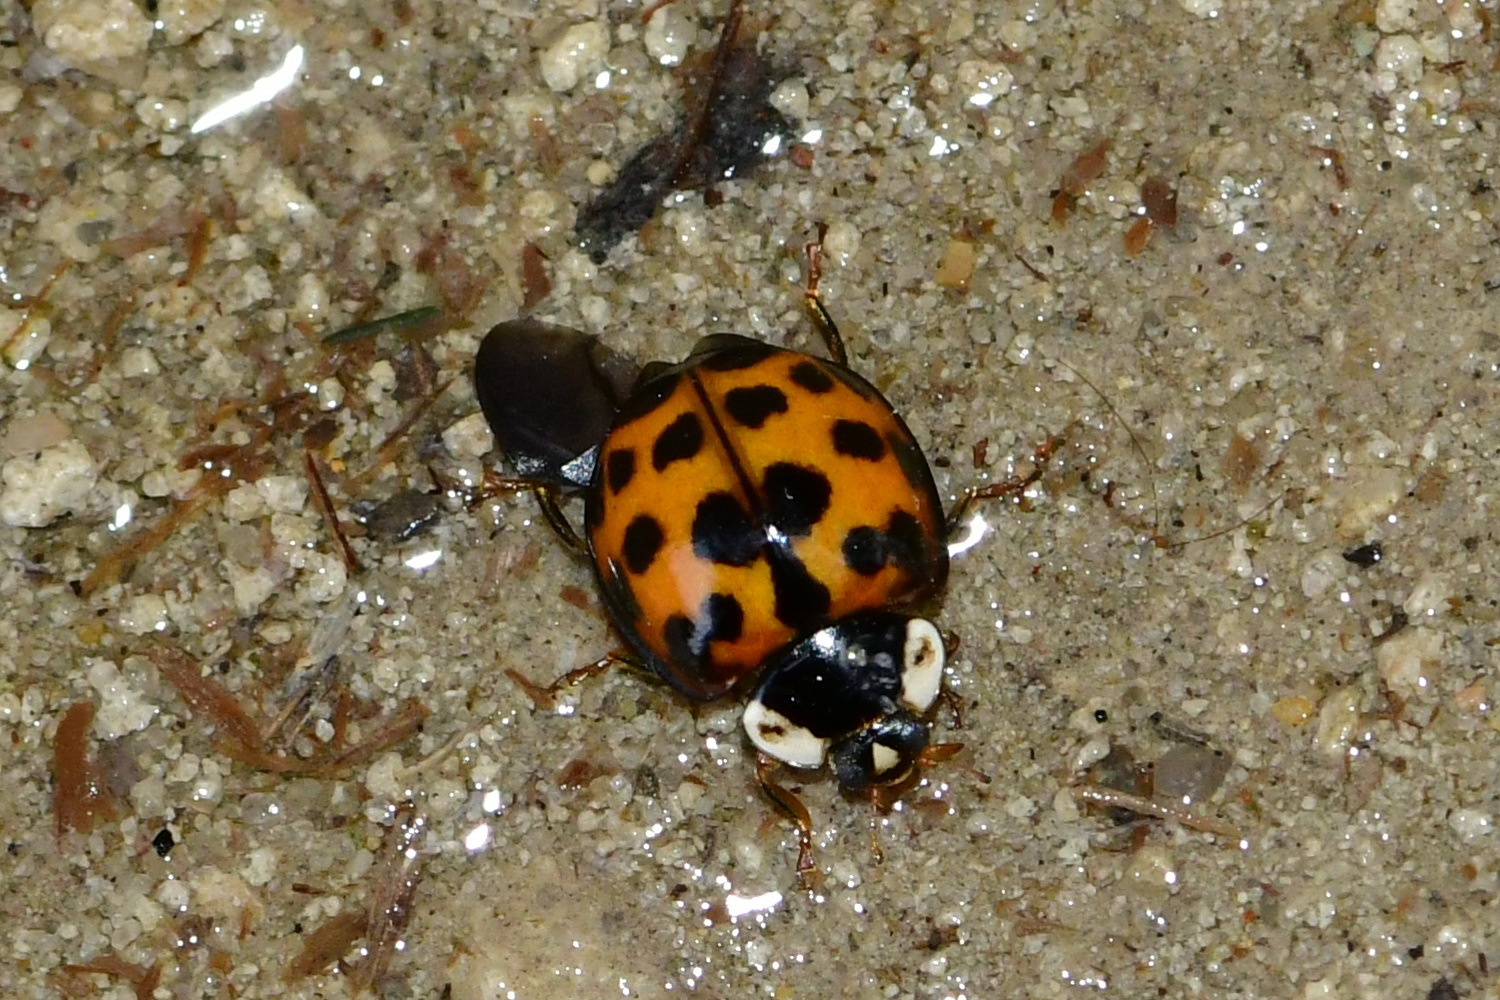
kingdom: Animalia
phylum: Arthropoda
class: Insecta
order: Coleoptera
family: Coccinellidae
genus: Harmonia
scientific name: Harmonia axyridis
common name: Harlequin ladybird
